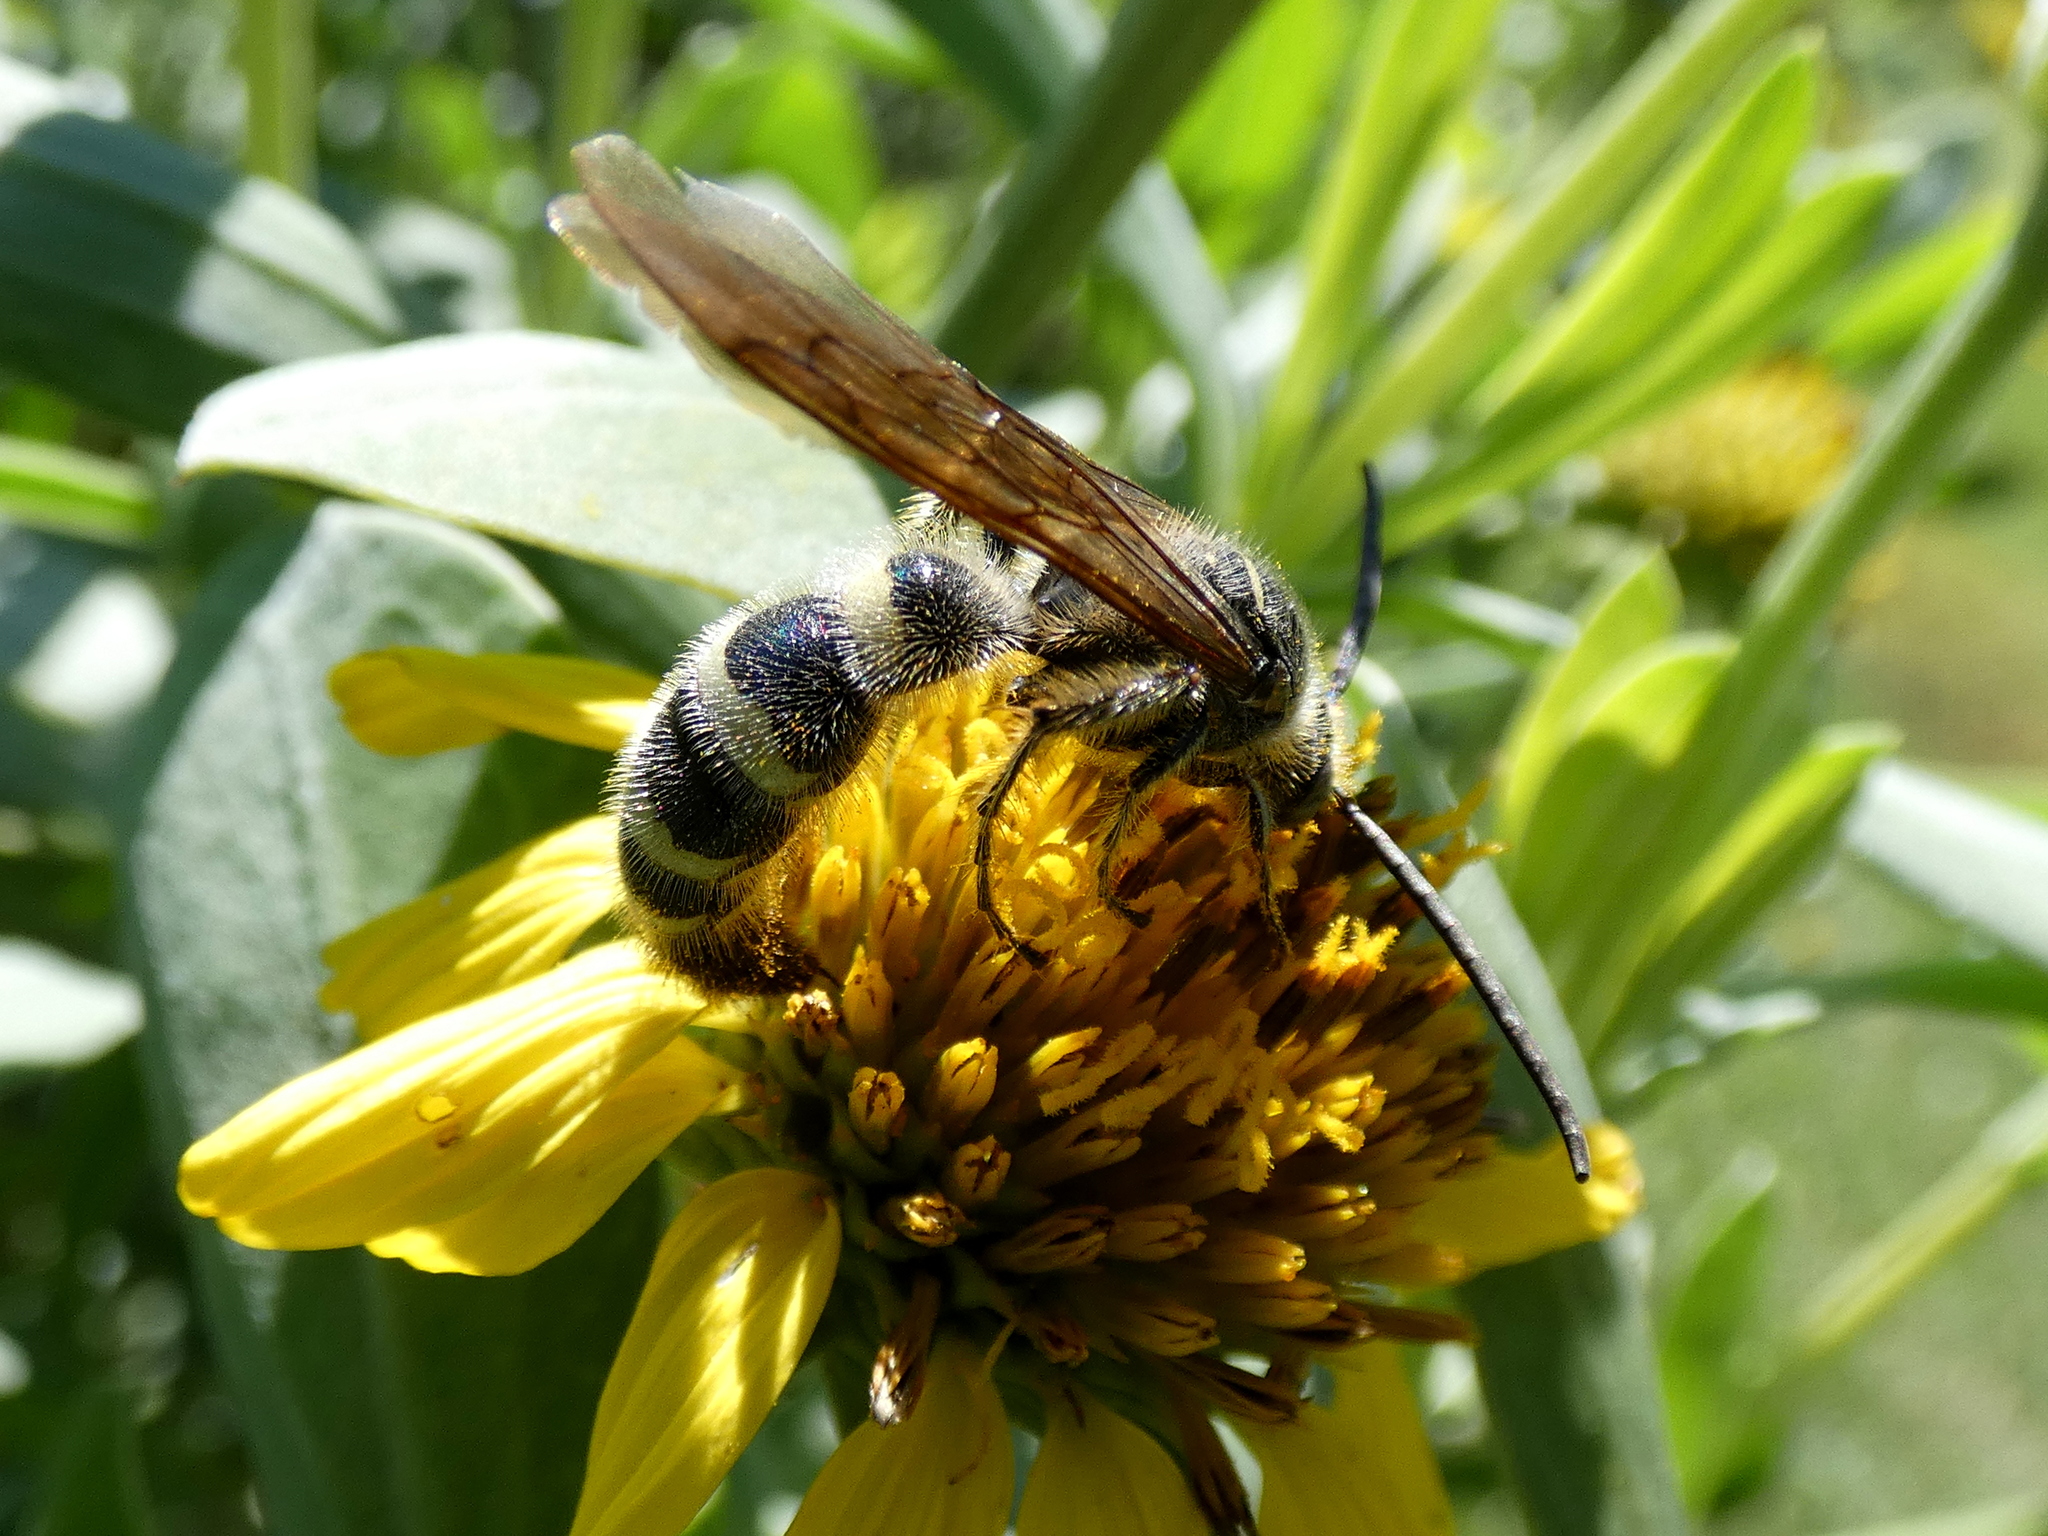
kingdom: Animalia
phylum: Arthropoda
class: Insecta
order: Hymenoptera
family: Scoliidae
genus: Dielis
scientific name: Dielis
